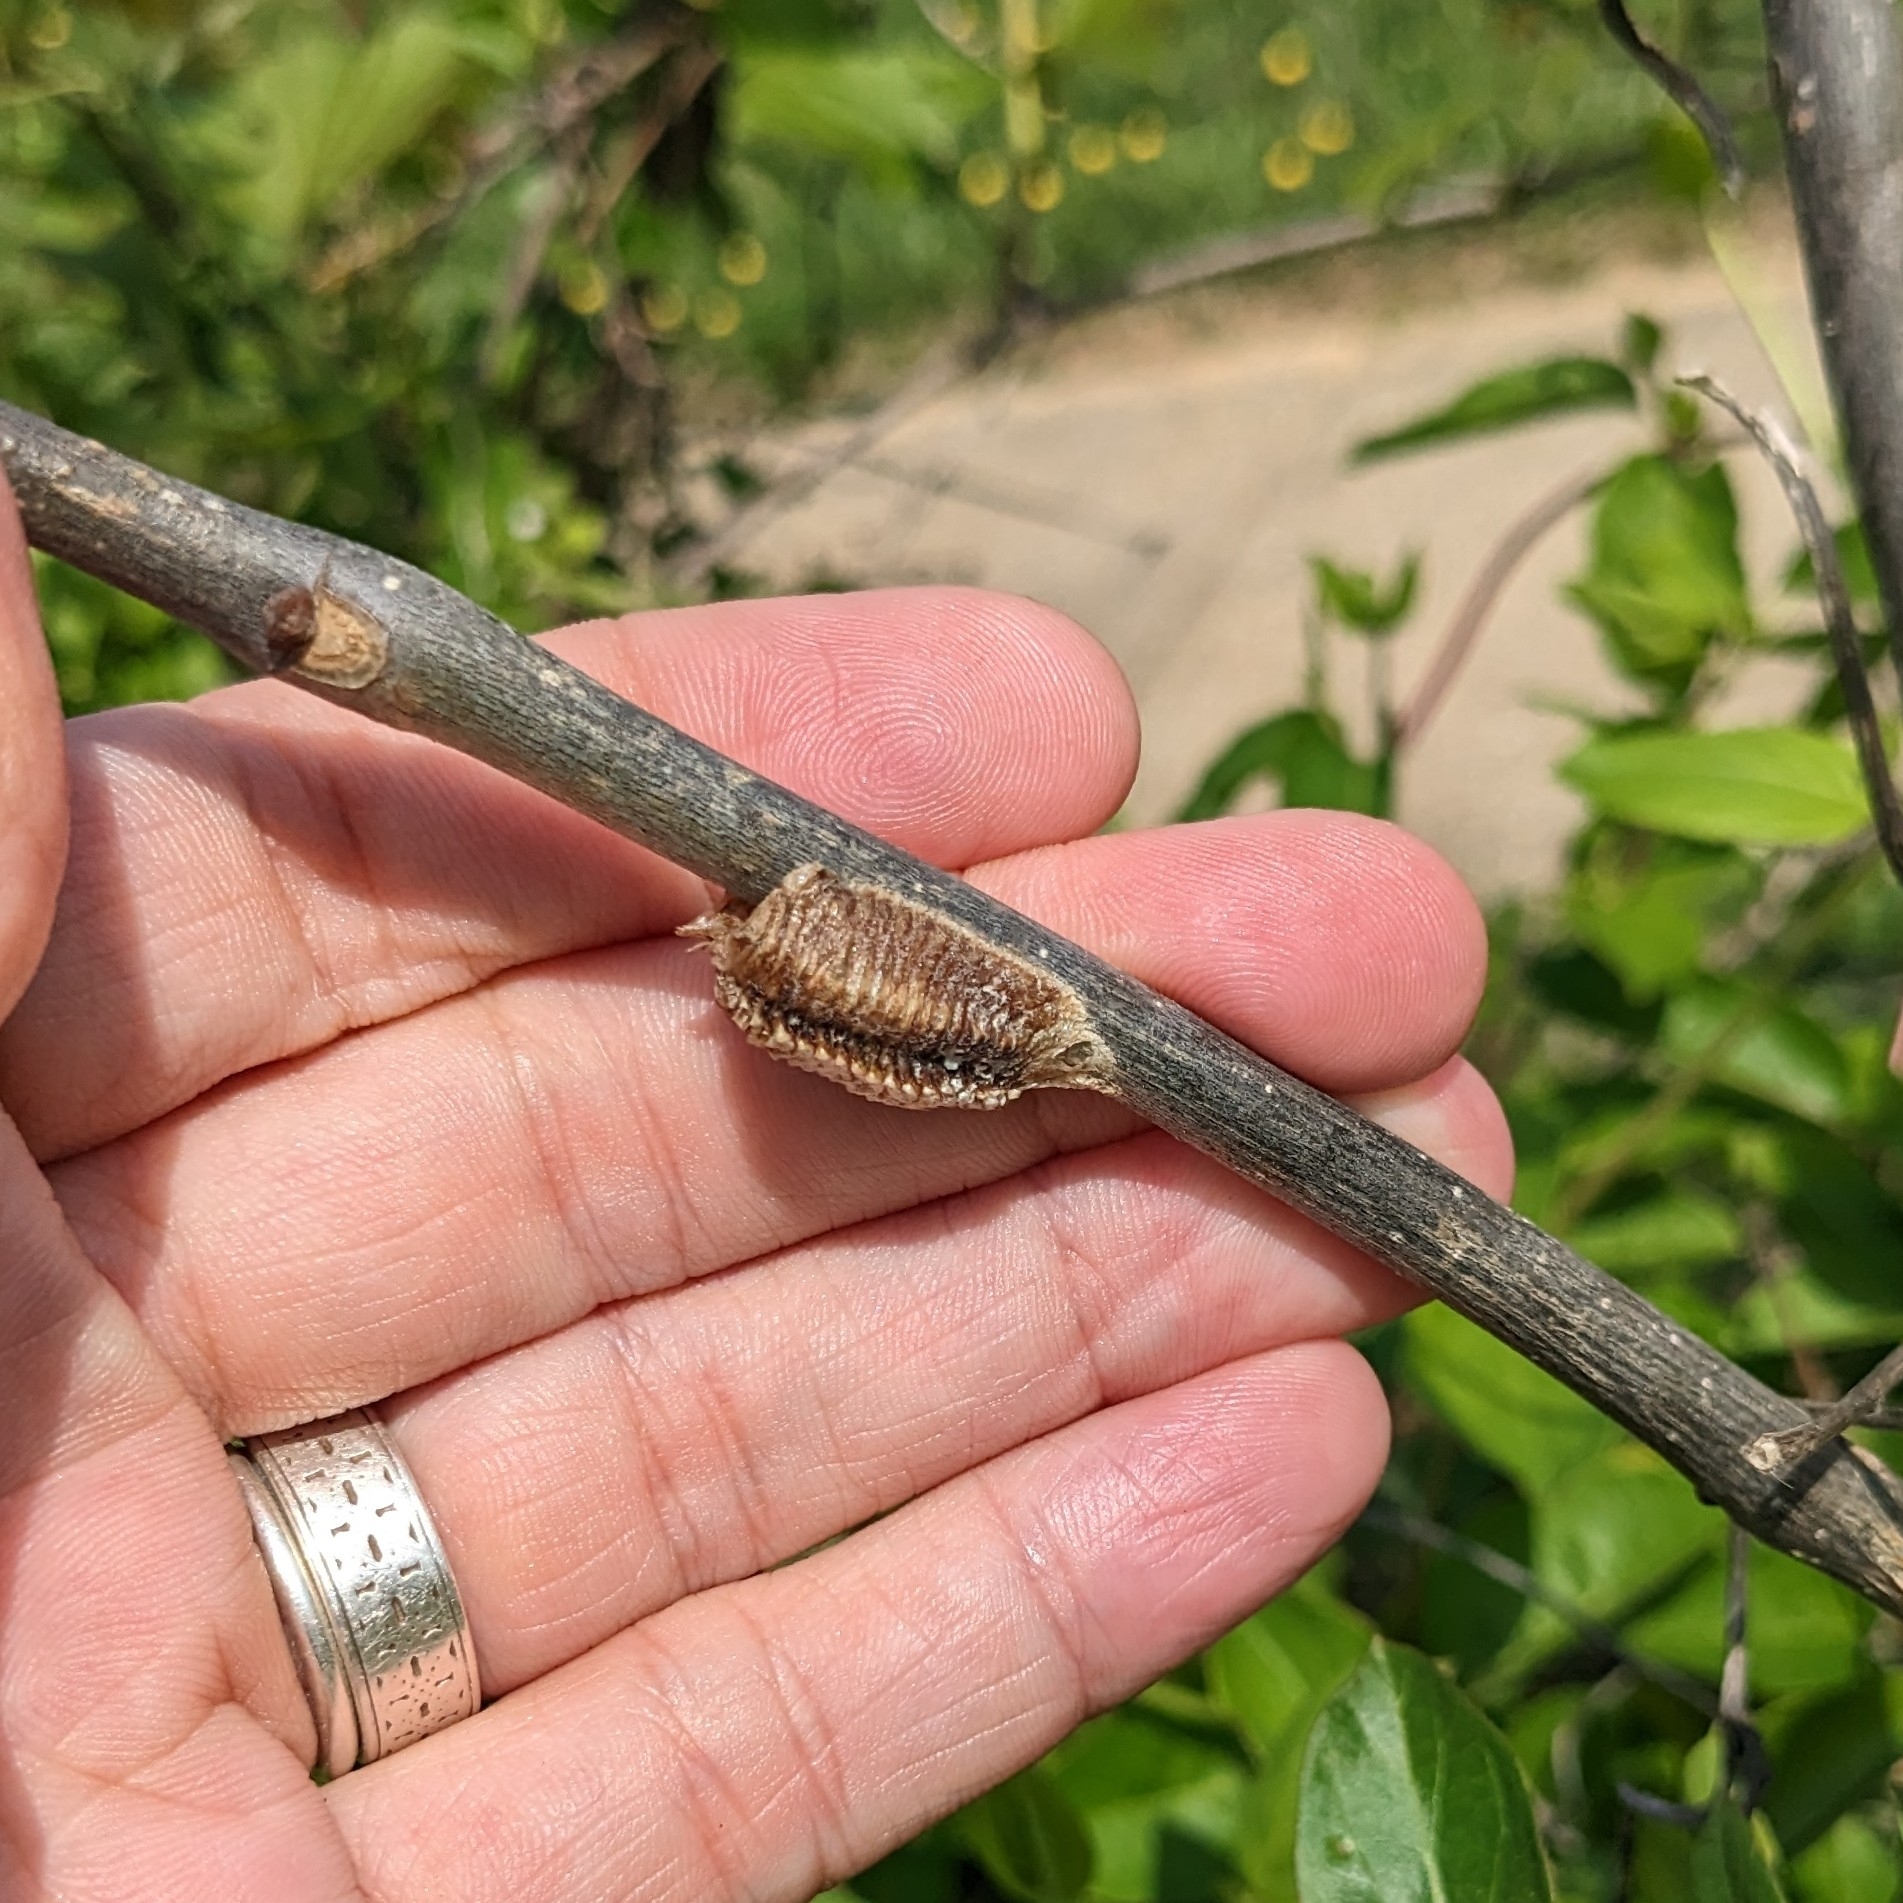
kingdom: Animalia
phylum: Arthropoda
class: Insecta
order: Mantodea
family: Mantidae
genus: Stagmomantis
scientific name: Stagmomantis carolina
